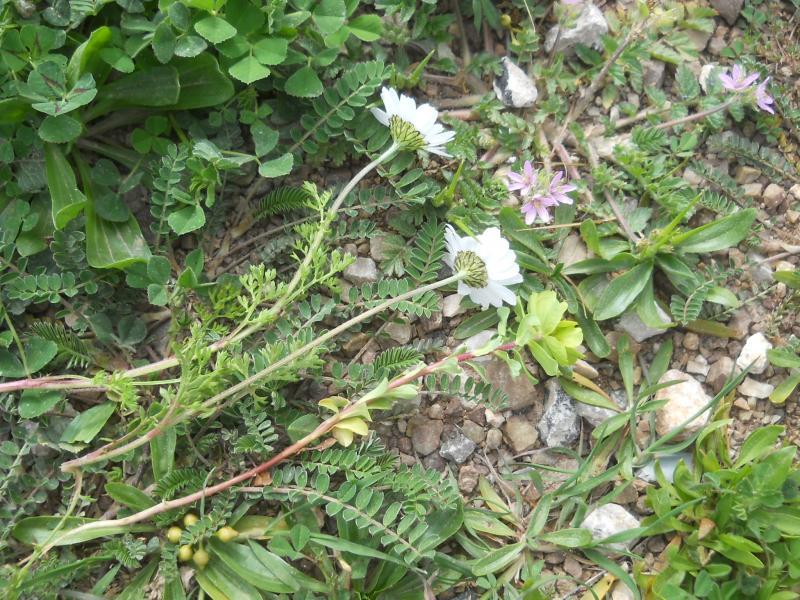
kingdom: Plantae
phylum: Tracheophyta
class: Magnoliopsida
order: Geraniales
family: Geraniaceae
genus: Erodium
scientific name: Erodium cicutarium
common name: Common stork's-bill
